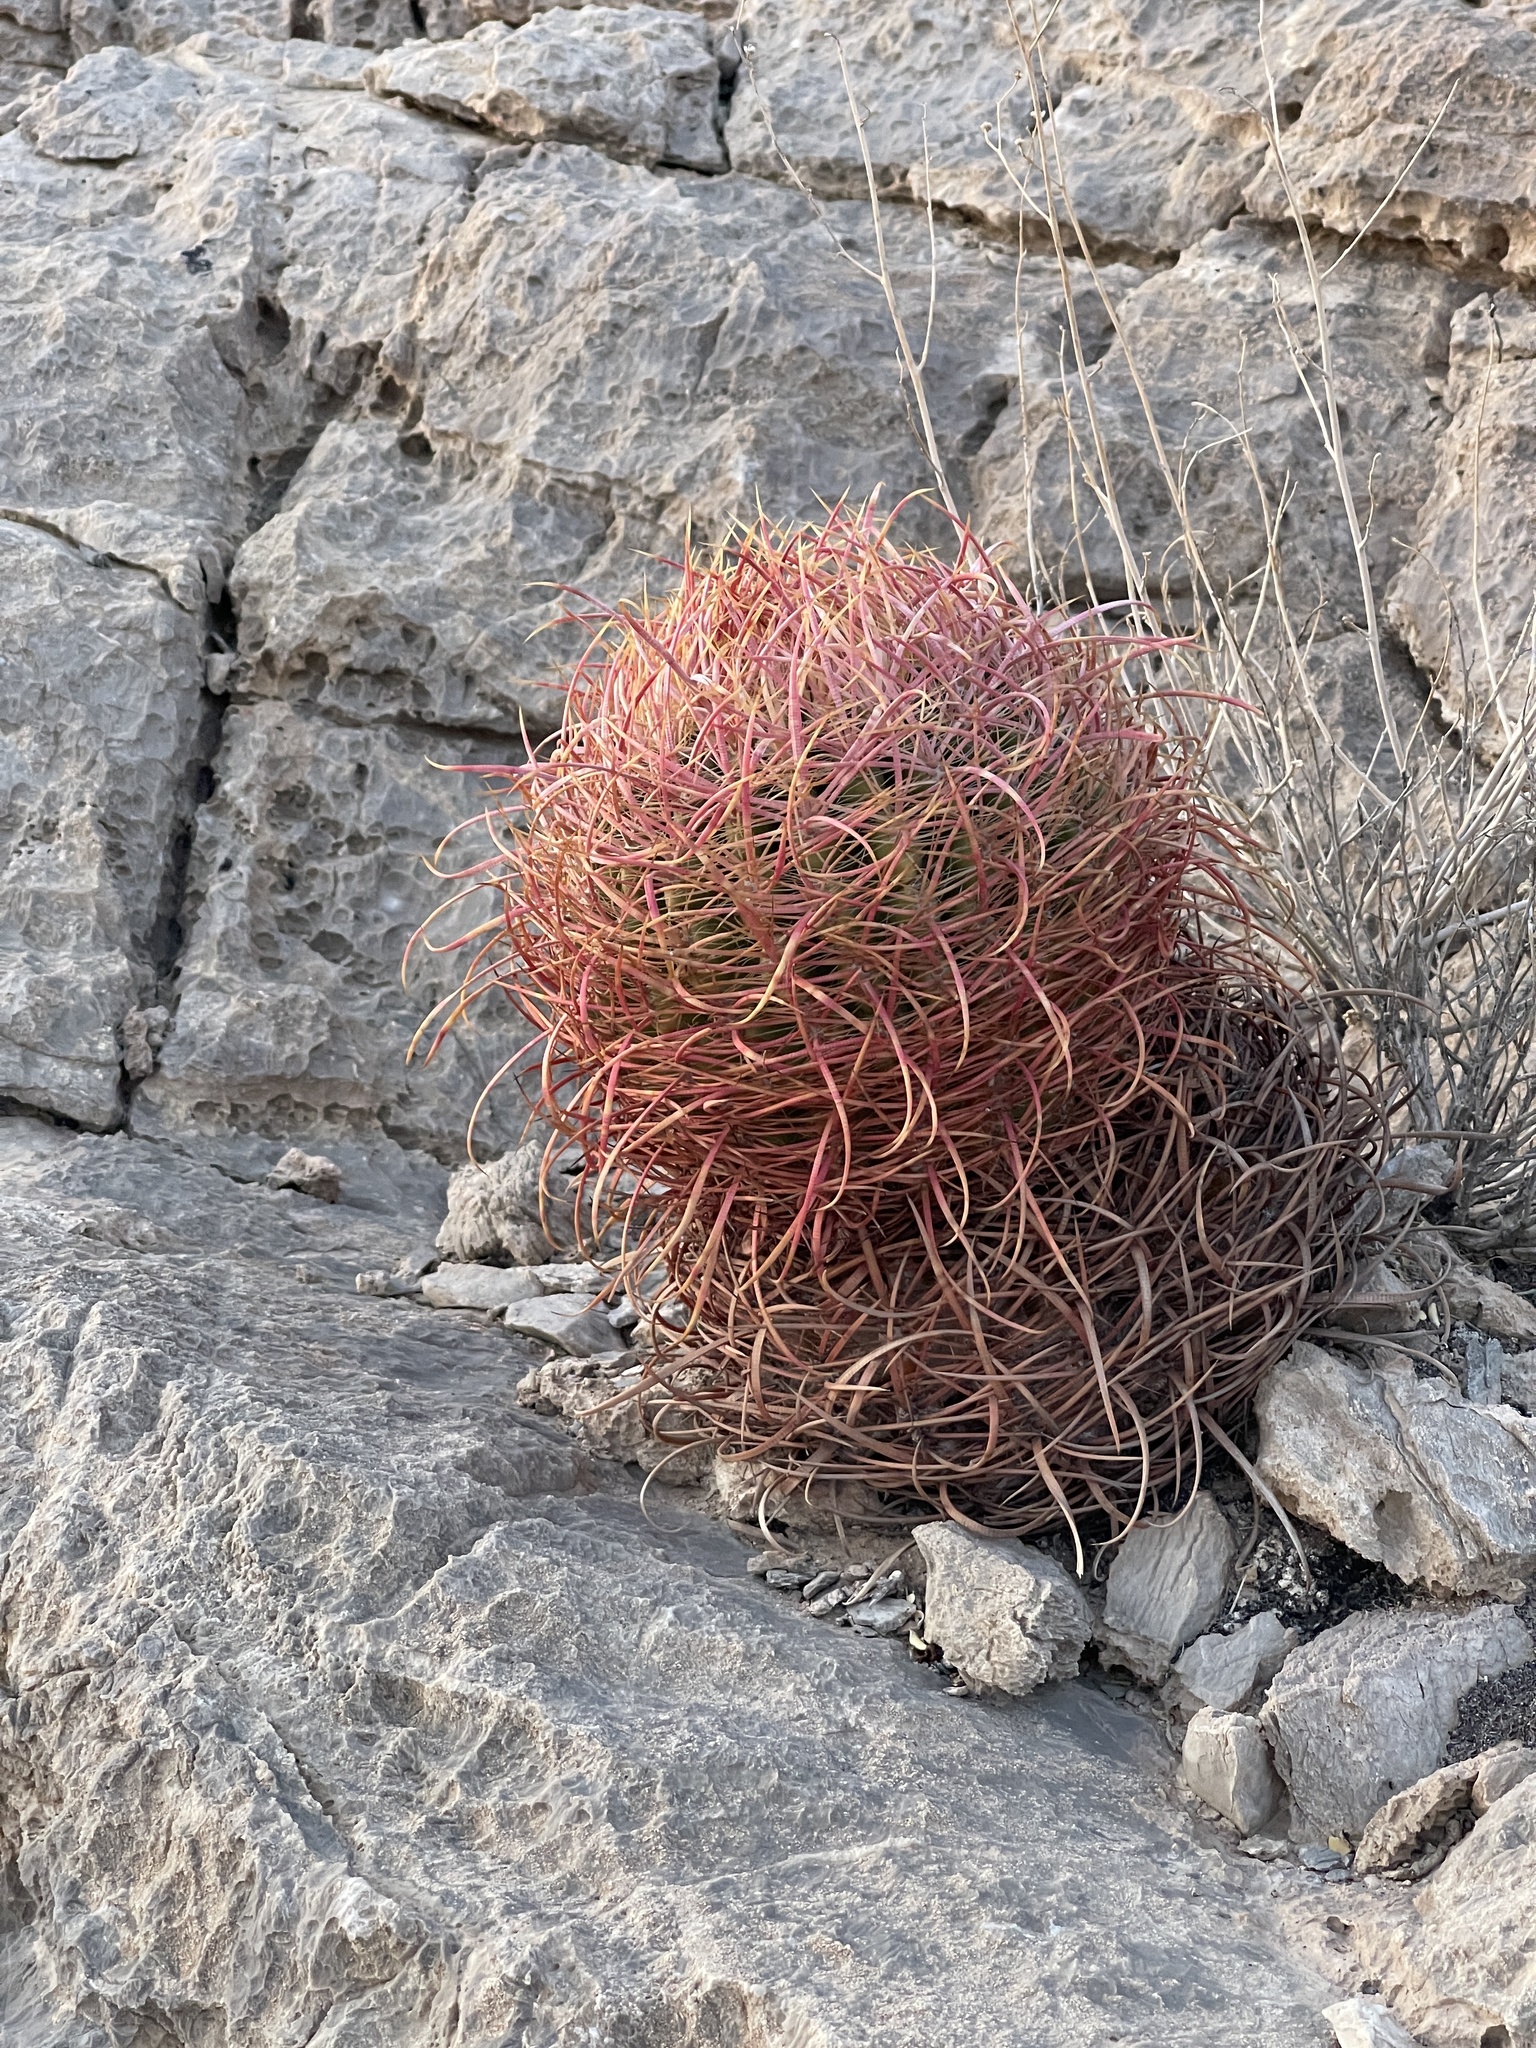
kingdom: Plantae
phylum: Tracheophyta
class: Magnoliopsida
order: Caryophyllales
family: Cactaceae
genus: Ferocactus
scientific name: Ferocactus cylindraceus
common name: California barrel cactus
